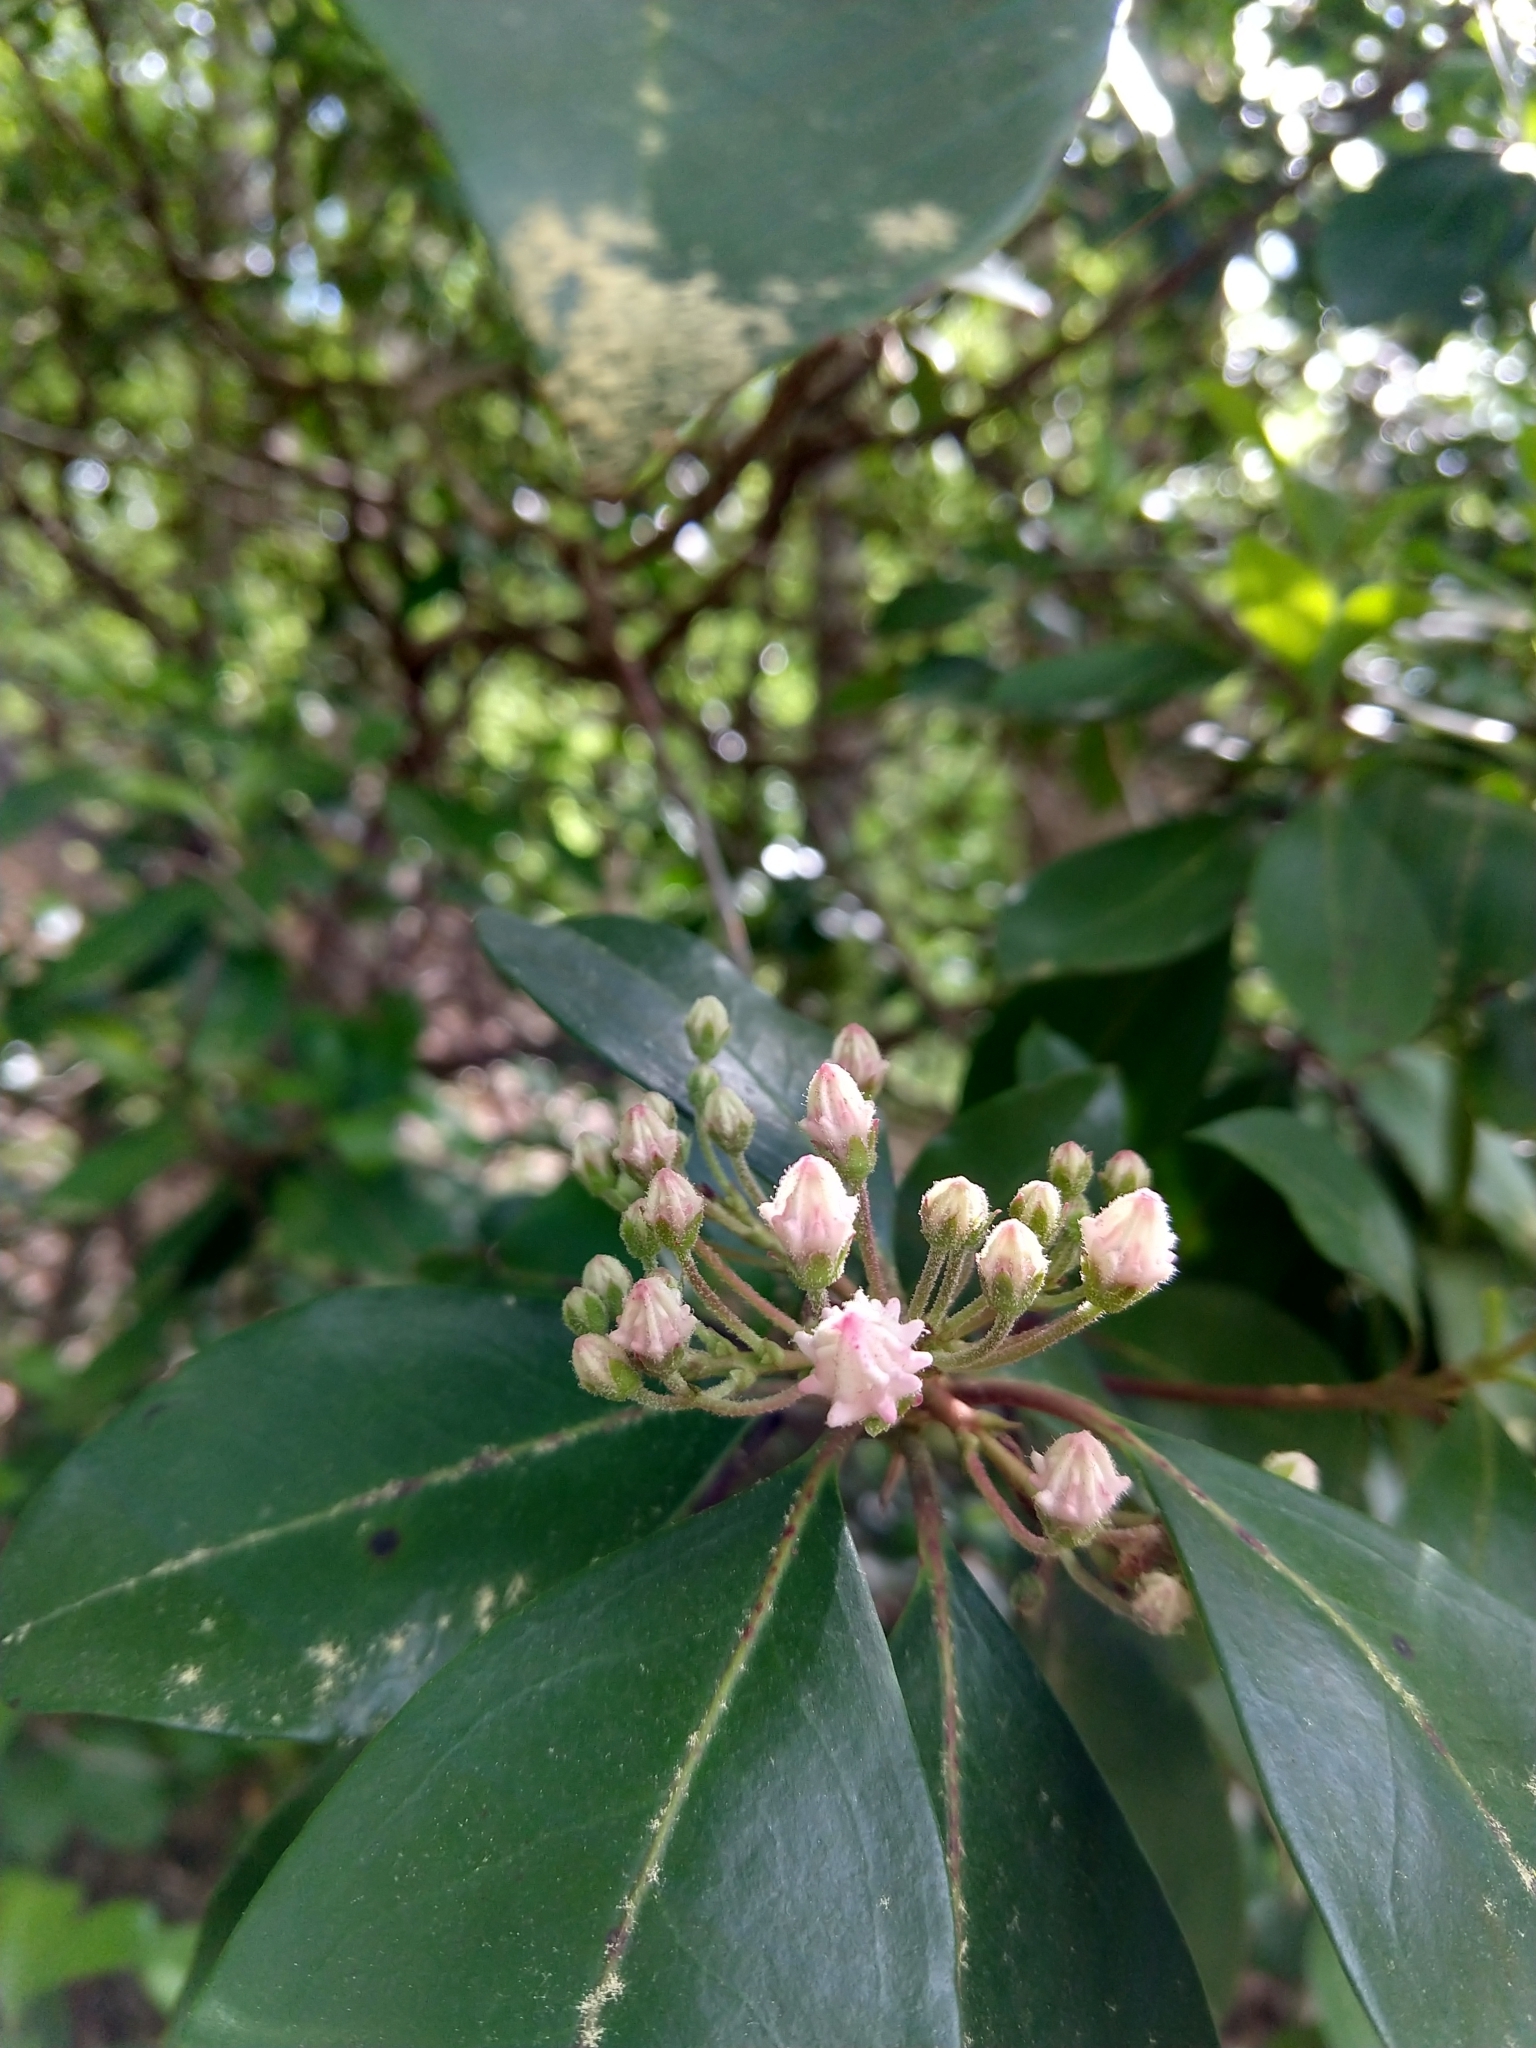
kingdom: Plantae
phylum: Tracheophyta
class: Magnoliopsida
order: Ericales
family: Ericaceae
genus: Kalmia
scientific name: Kalmia latifolia
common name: Mountain-laurel
